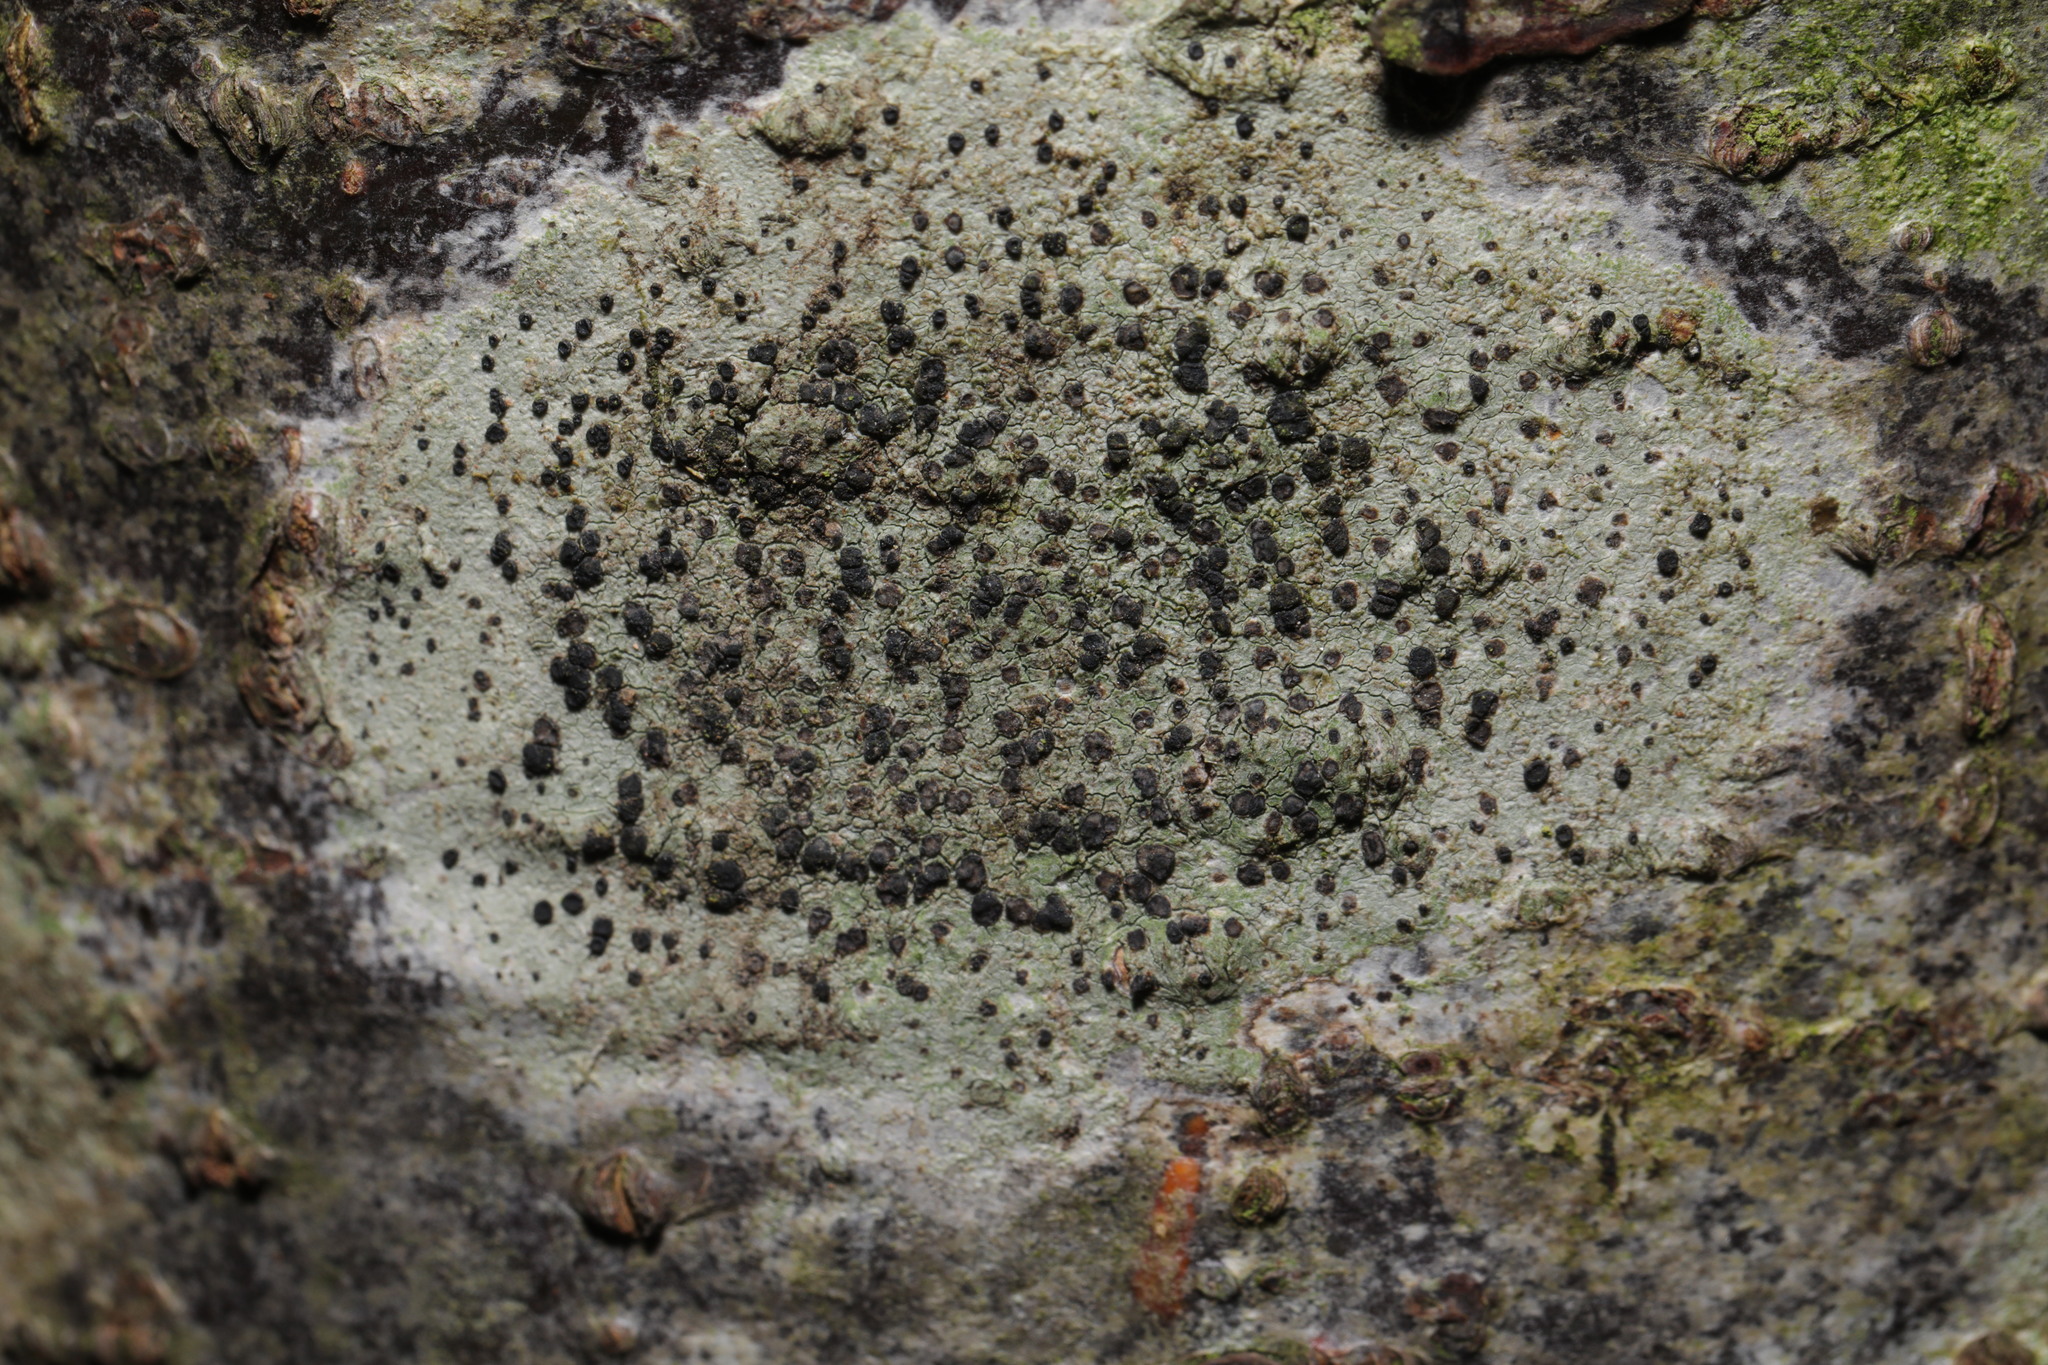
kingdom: Fungi
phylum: Ascomycota
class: Lecanoromycetes
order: Lecanorales
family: Lecanoraceae
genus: Lecidella
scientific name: Lecidella elaeochroma
